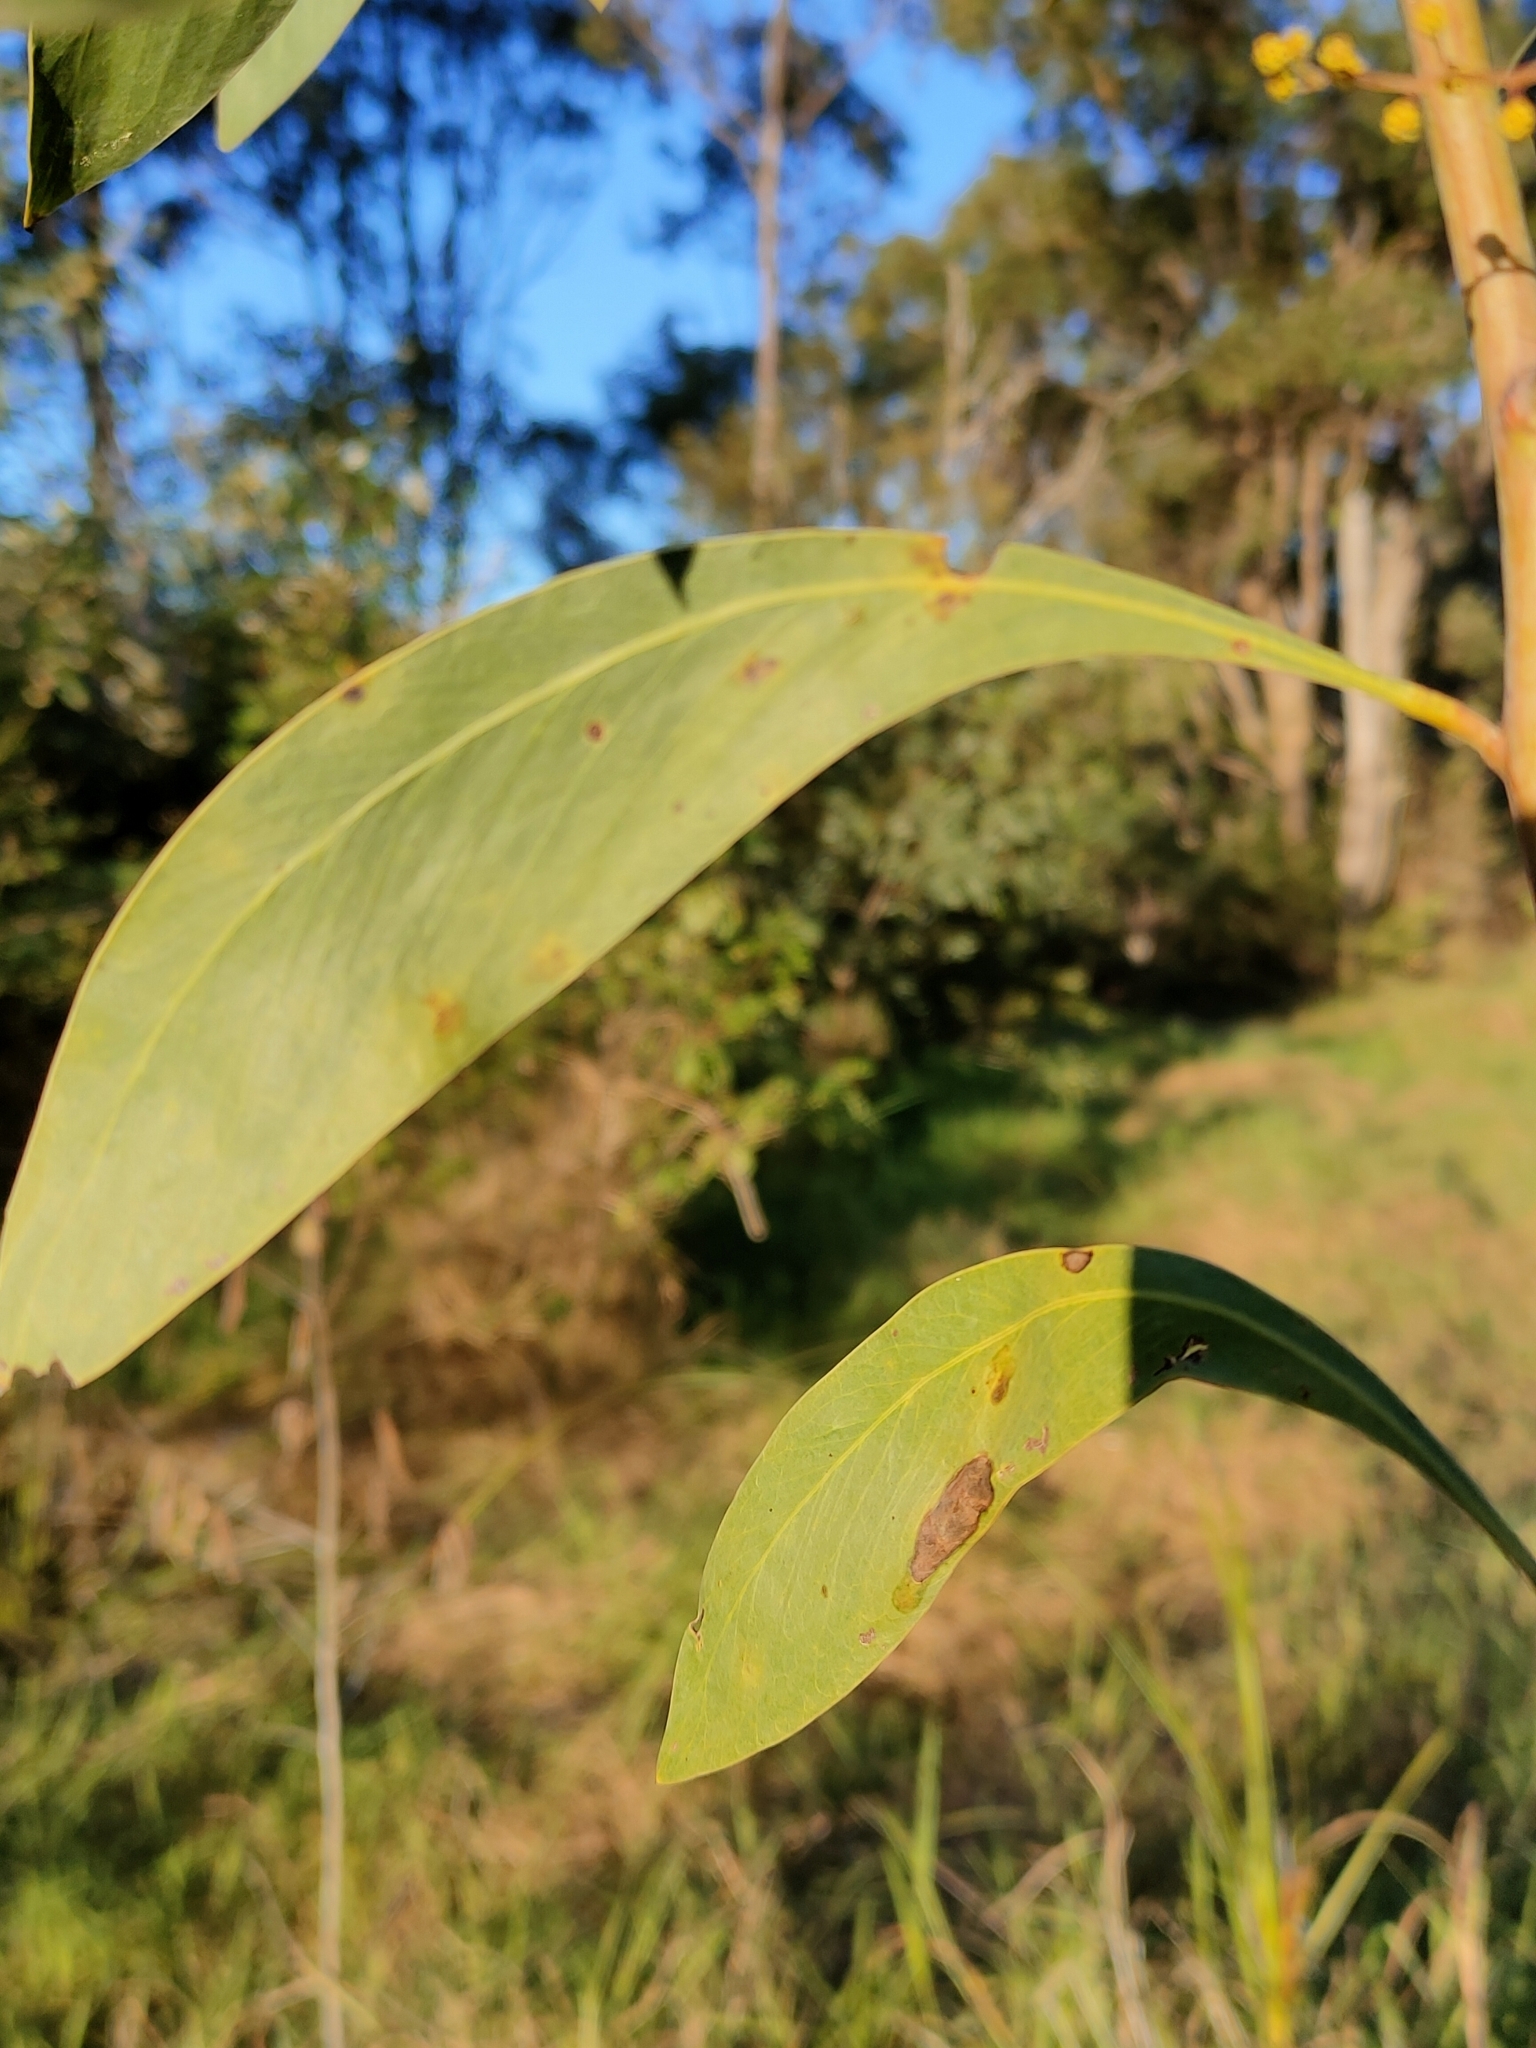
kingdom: Plantae
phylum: Tracheophyta
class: Magnoliopsida
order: Fabales
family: Fabaceae
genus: Acacia
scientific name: Acacia falcata
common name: Burra acacia
